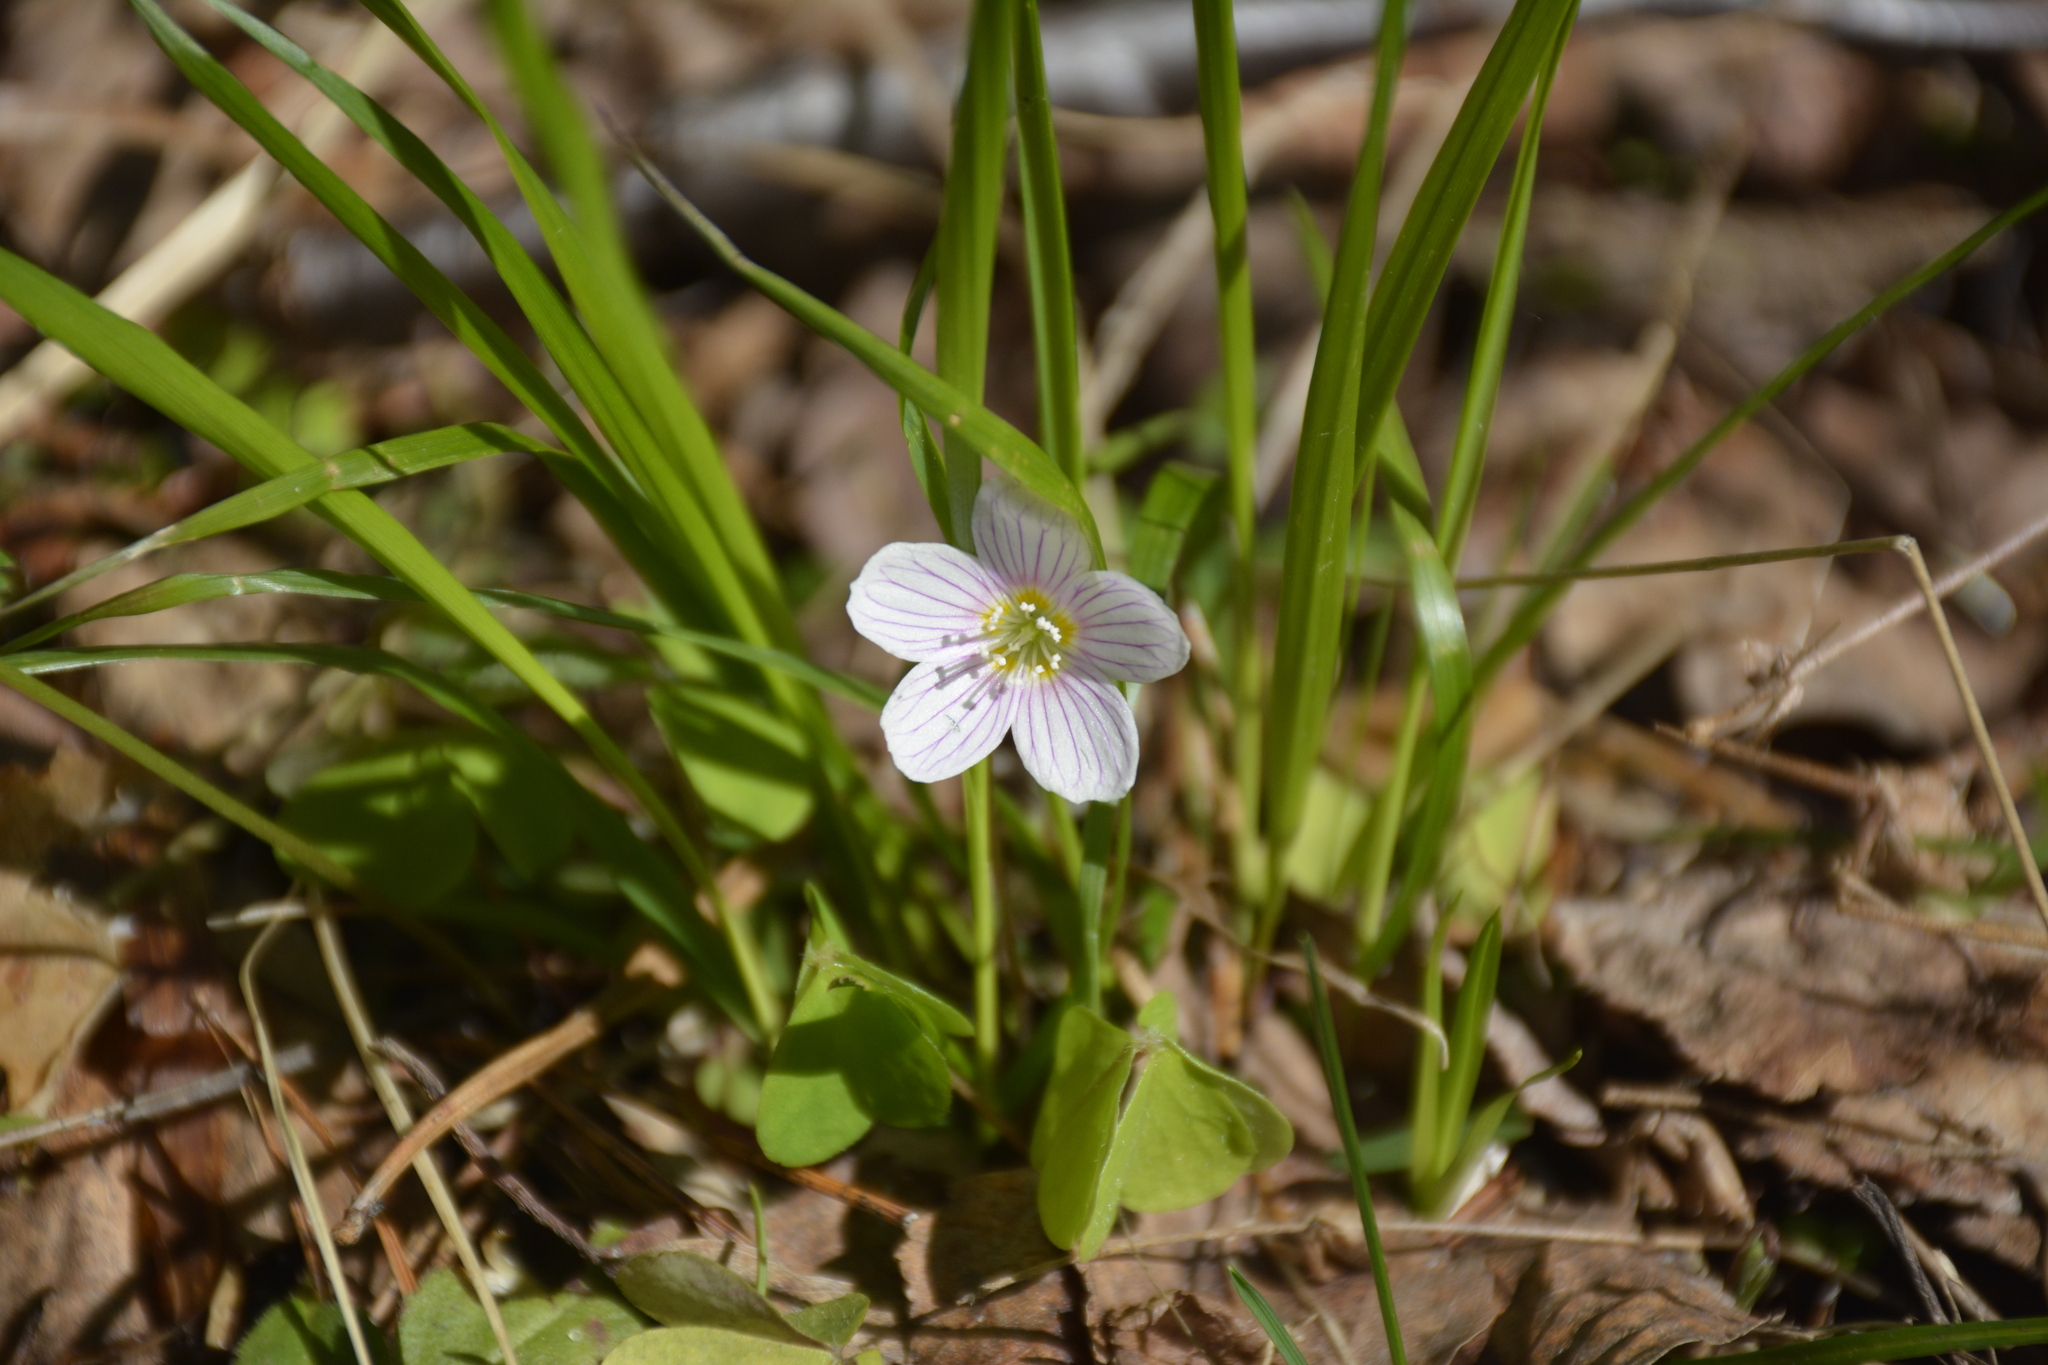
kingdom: Plantae
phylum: Tracheophyta
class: Magnoliopsida
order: Oxalidales
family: Oxalidaceae
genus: Oxalis
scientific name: Oxalis acetosella
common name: Wood-sorrel
